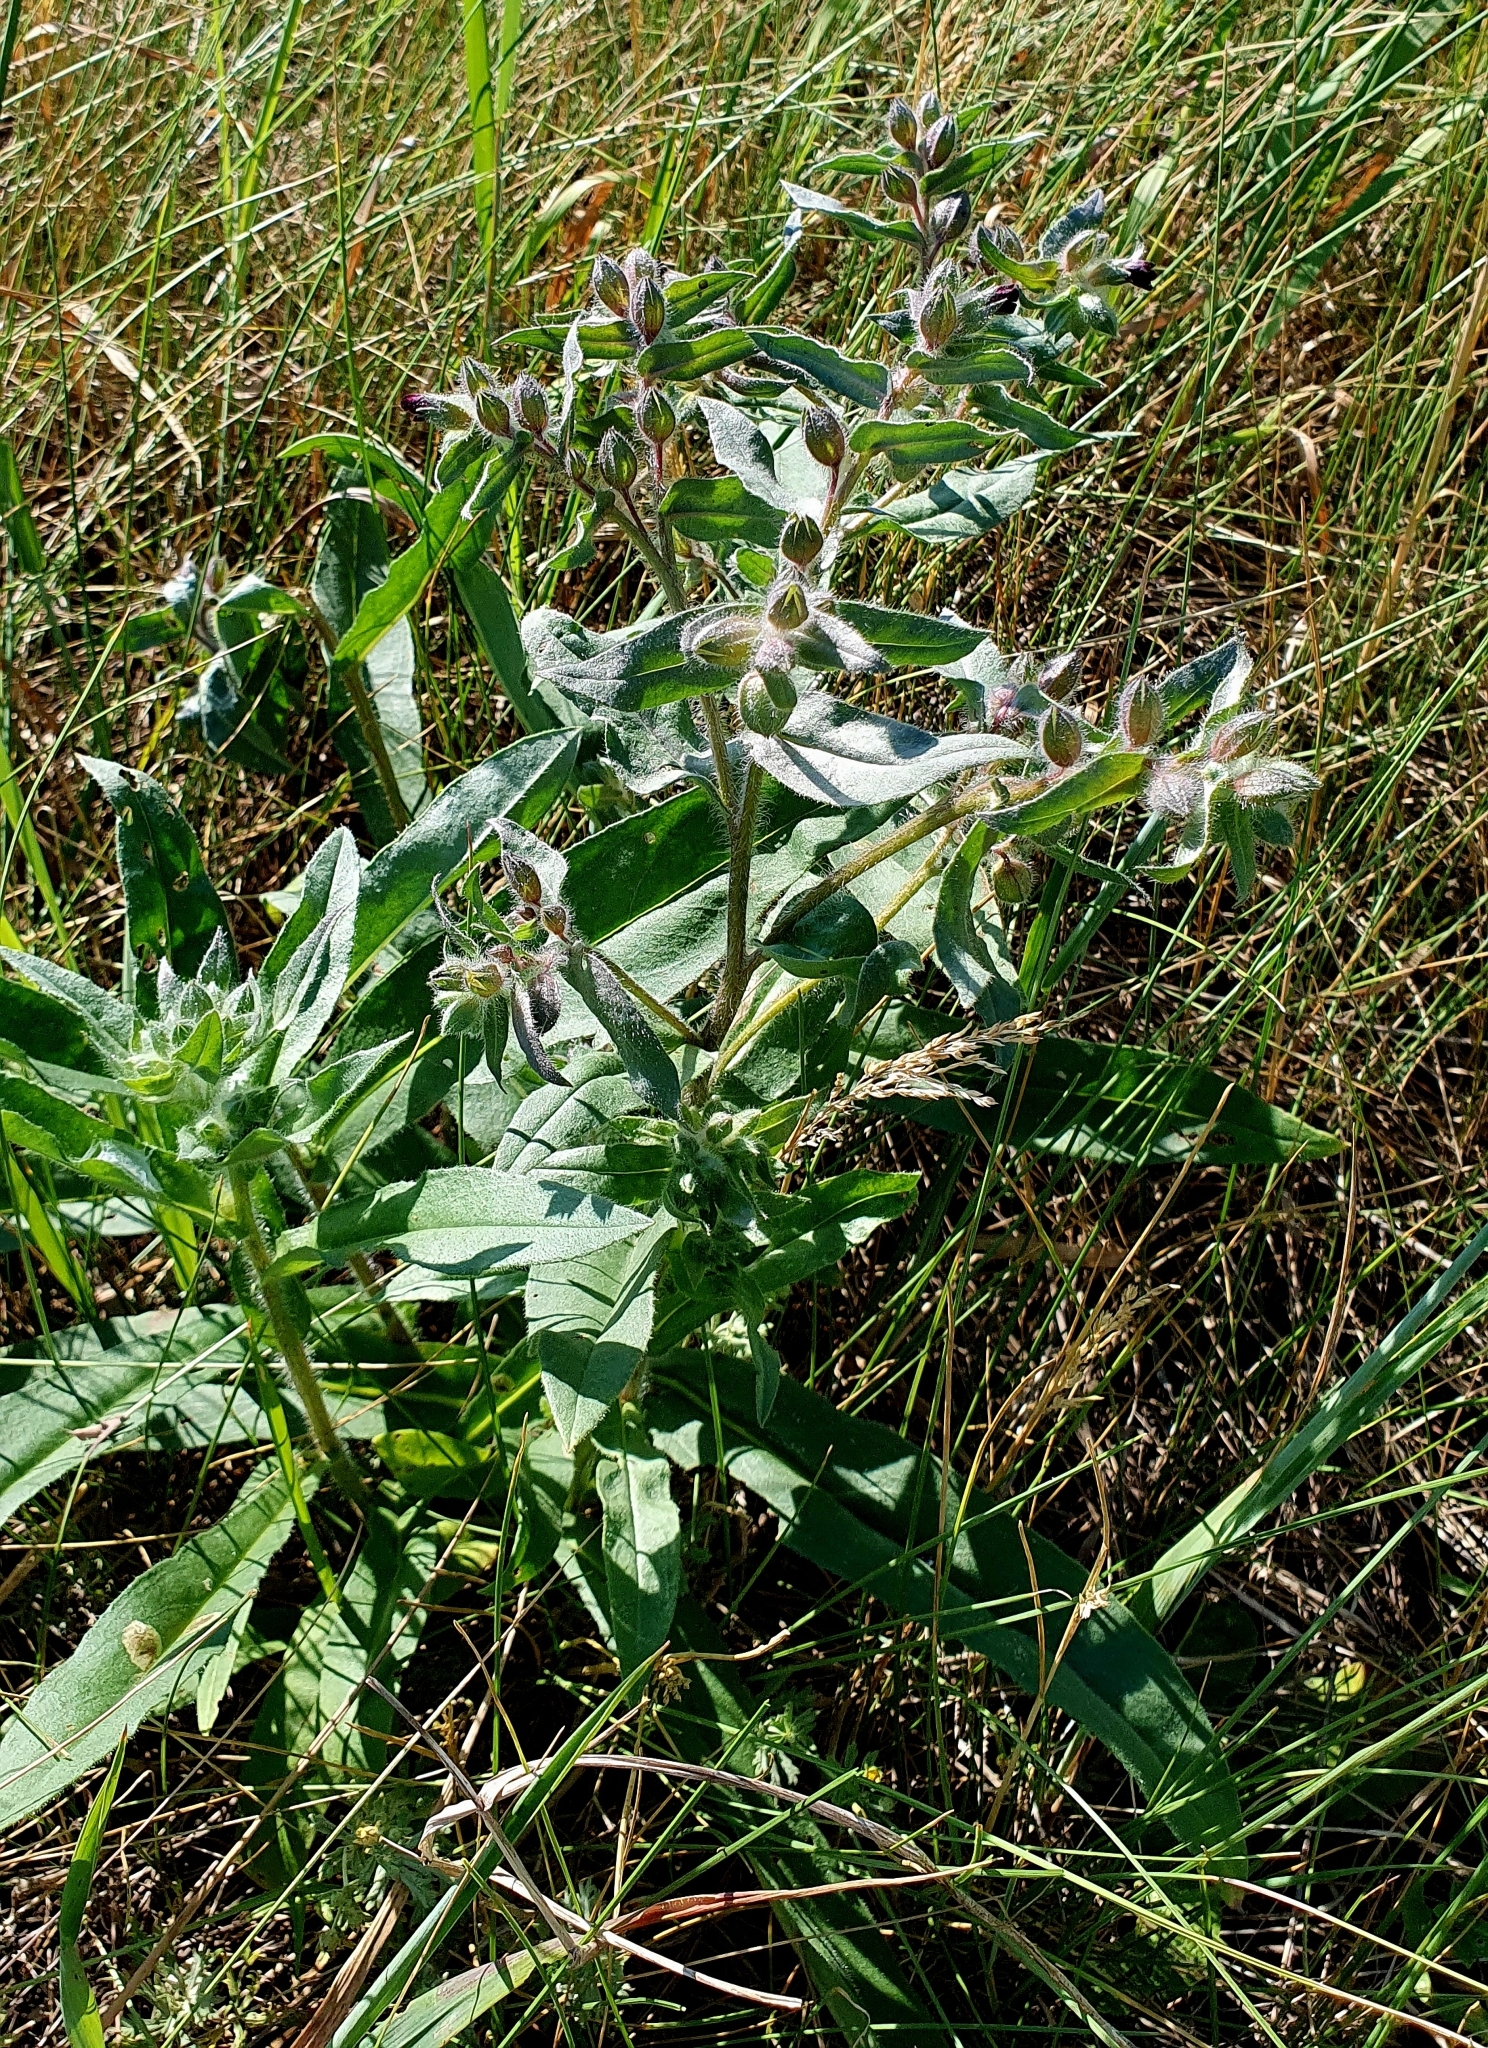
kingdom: Plantae
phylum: Tracheophyta
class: Magnoliopsida
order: Boraginales
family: Boraginaceae
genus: Nonea
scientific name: Nonea pulla
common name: Brown nonea
